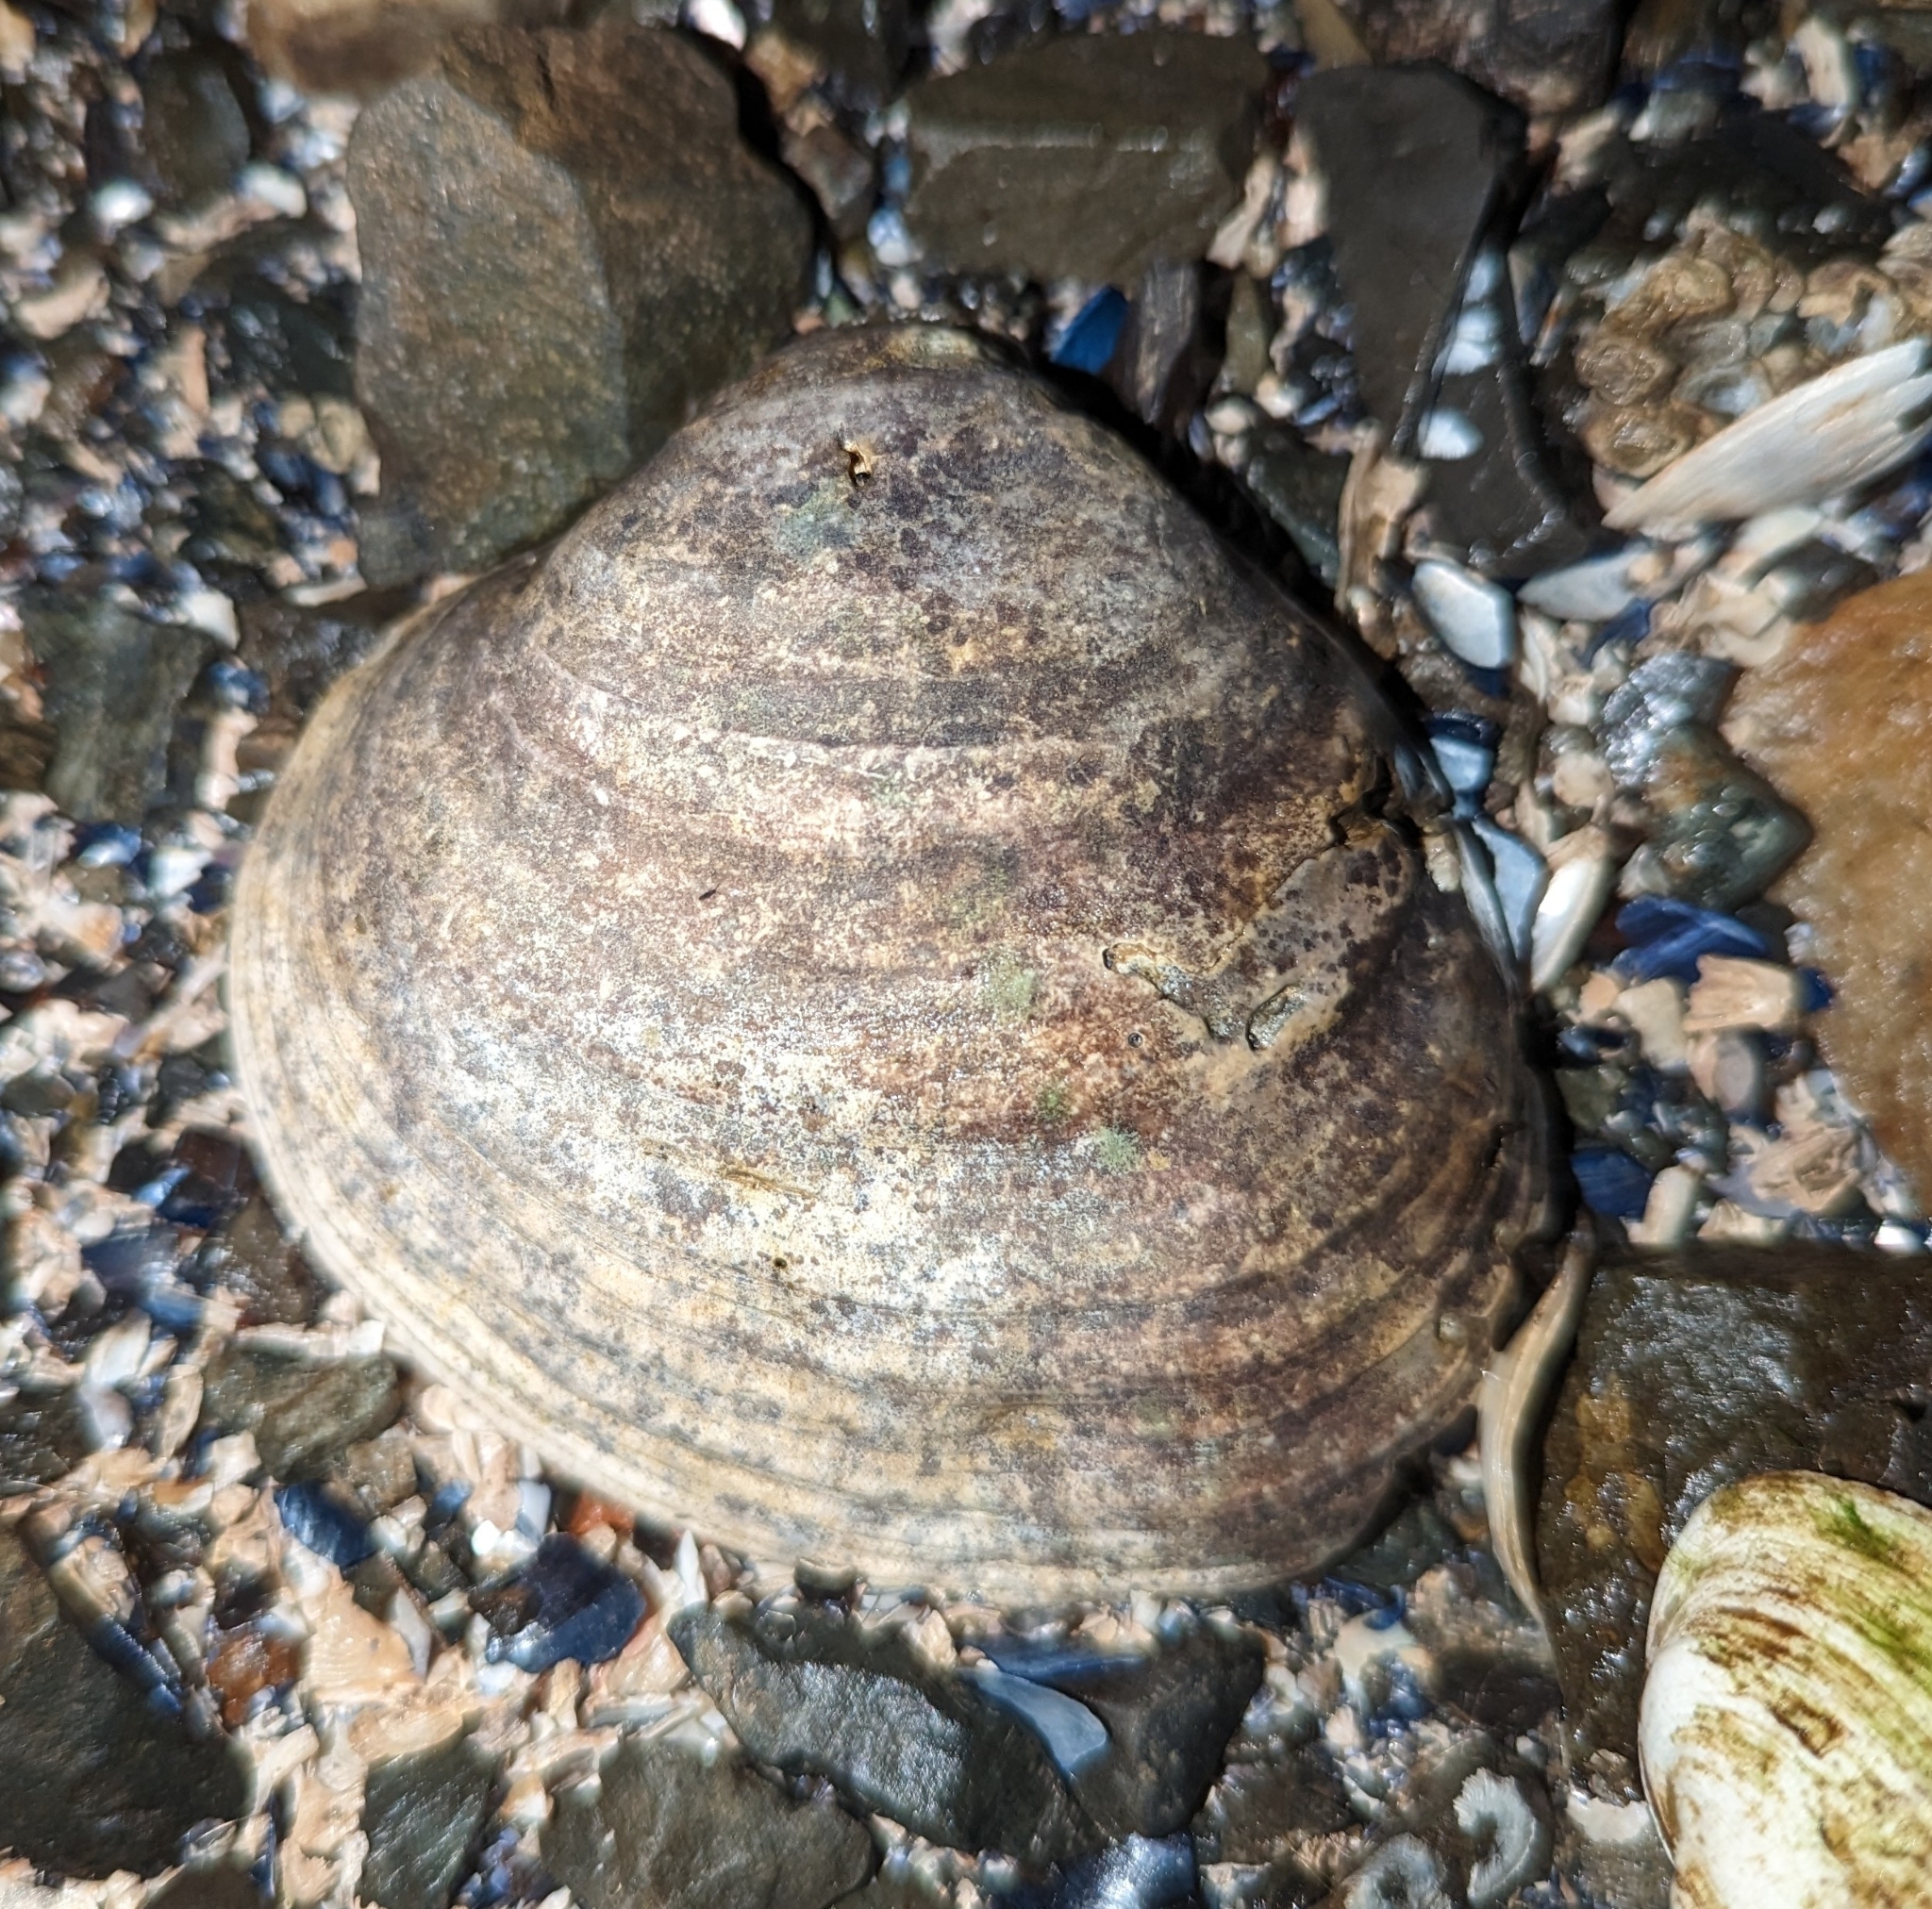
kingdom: Animalia
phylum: Mollusca
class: Bivalvia
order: Venerida
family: Veneridae
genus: Saxidomus
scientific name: Saxidomus gigantea
